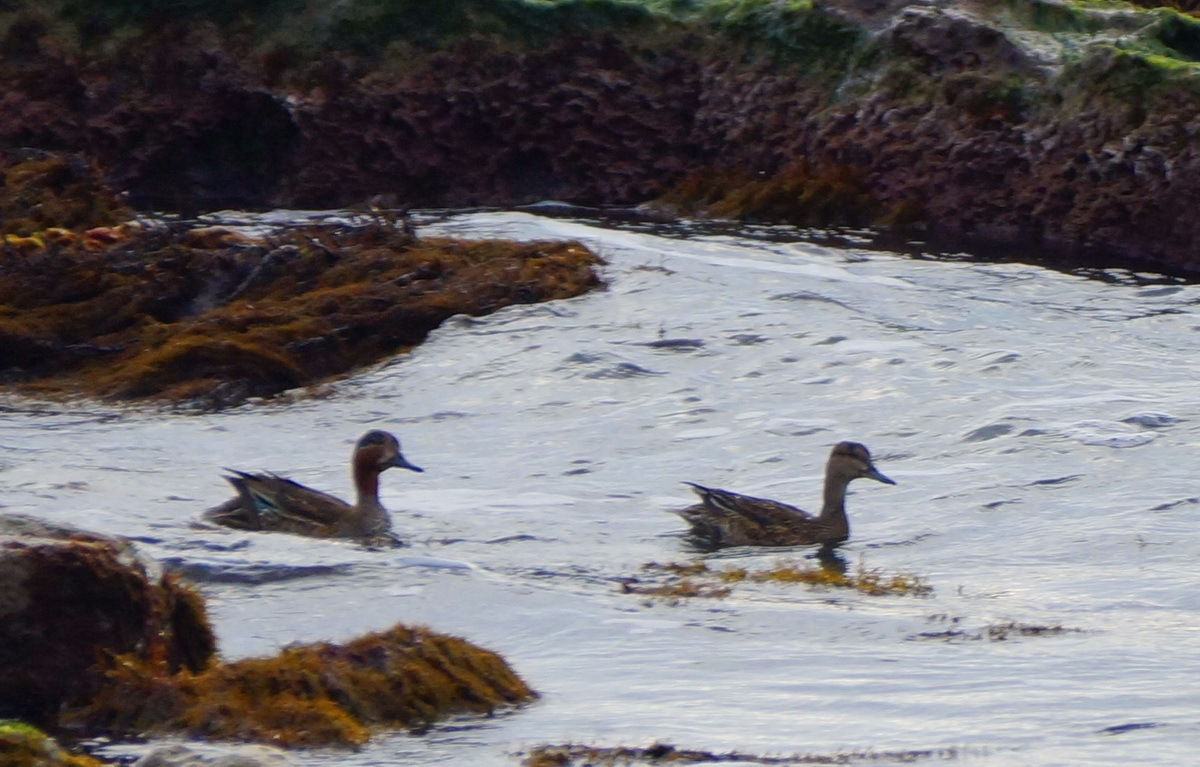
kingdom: Animalia
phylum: Chordata
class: Aves
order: Anseriformes
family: Anatidae
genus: Anas
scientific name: Anas crecca
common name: Eurasian teal
